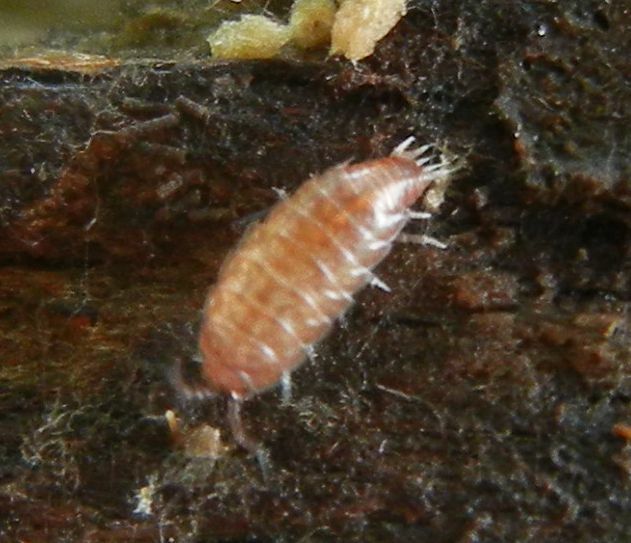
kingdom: Animalia
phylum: Arthropoda
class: Malacostraca
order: Isopoda
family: Trichoniscidae
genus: Trichoniscus
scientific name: Trichoniscus
